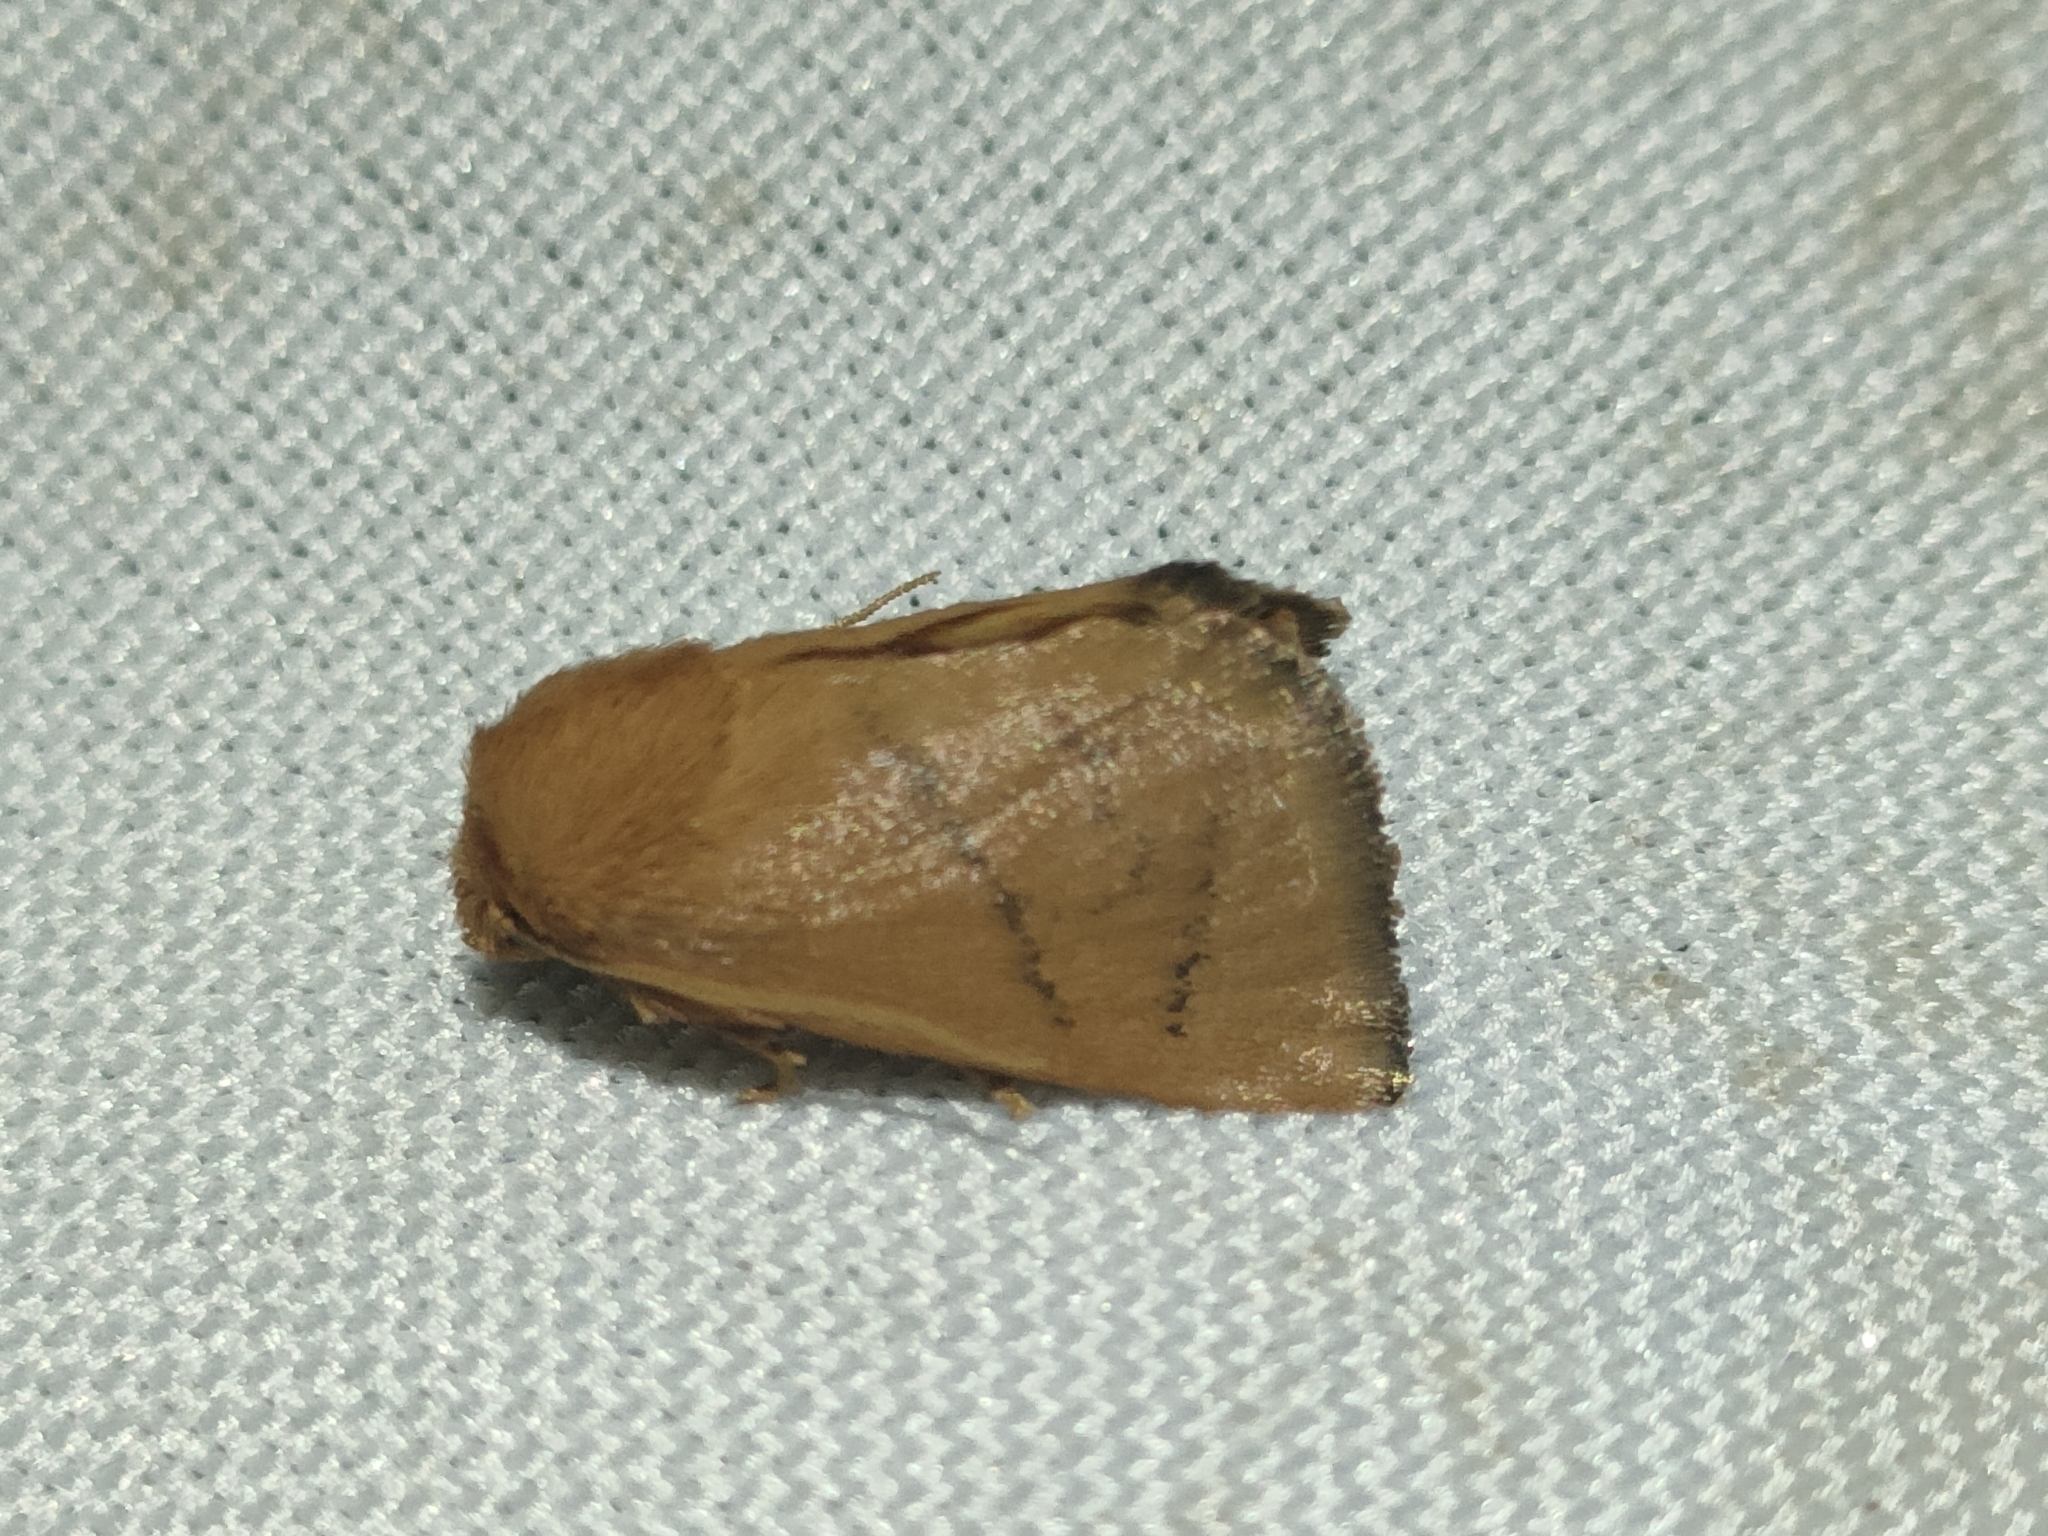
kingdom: Animalia
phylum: Arthropoda
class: Insecta
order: Lepidoptera
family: Limacodidae
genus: Hoyosia
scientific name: Hoyosia codeti
